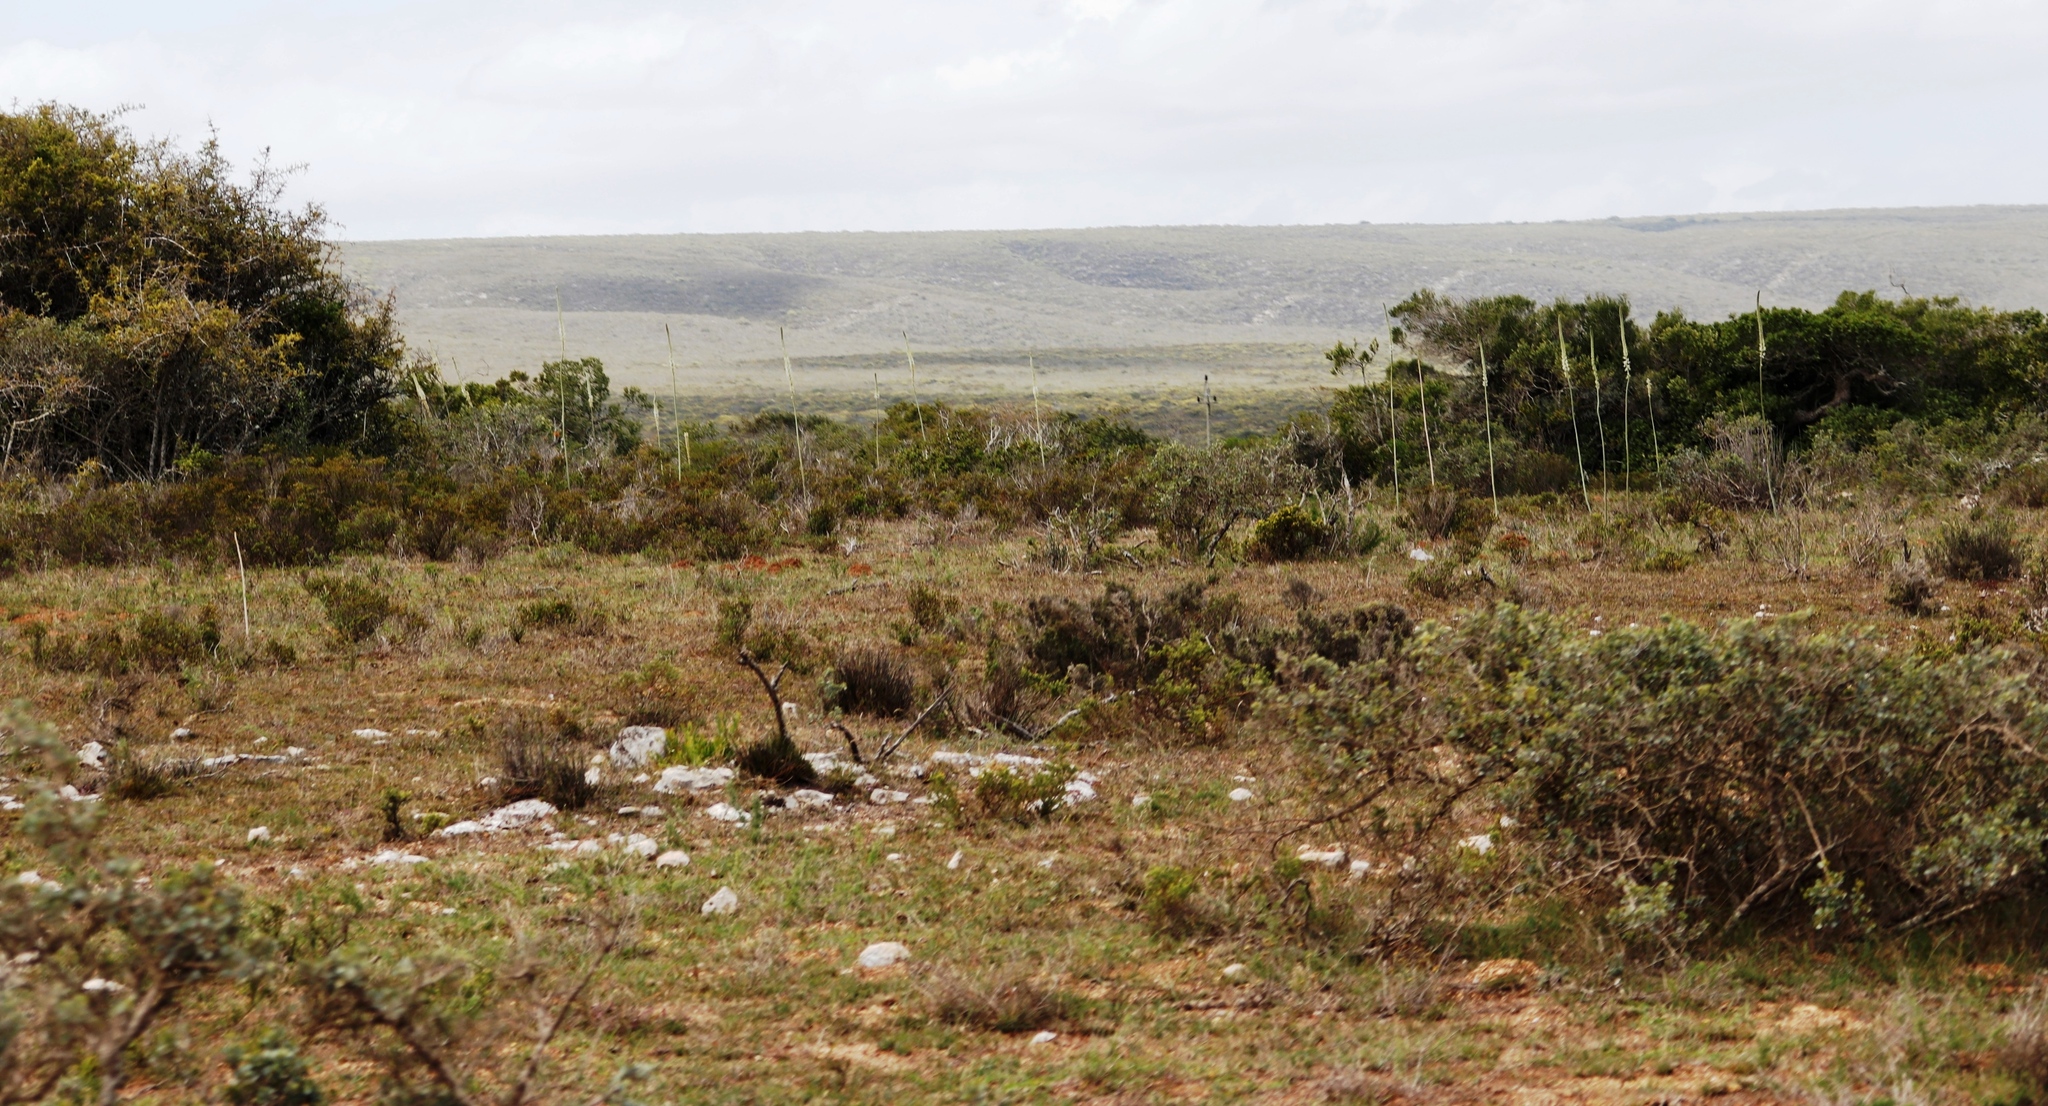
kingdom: Plantae
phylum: Tracheophyta
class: Liliopsida
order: Asparagales
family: Asparagaceae
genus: Drimia
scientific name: Drimia capensis
